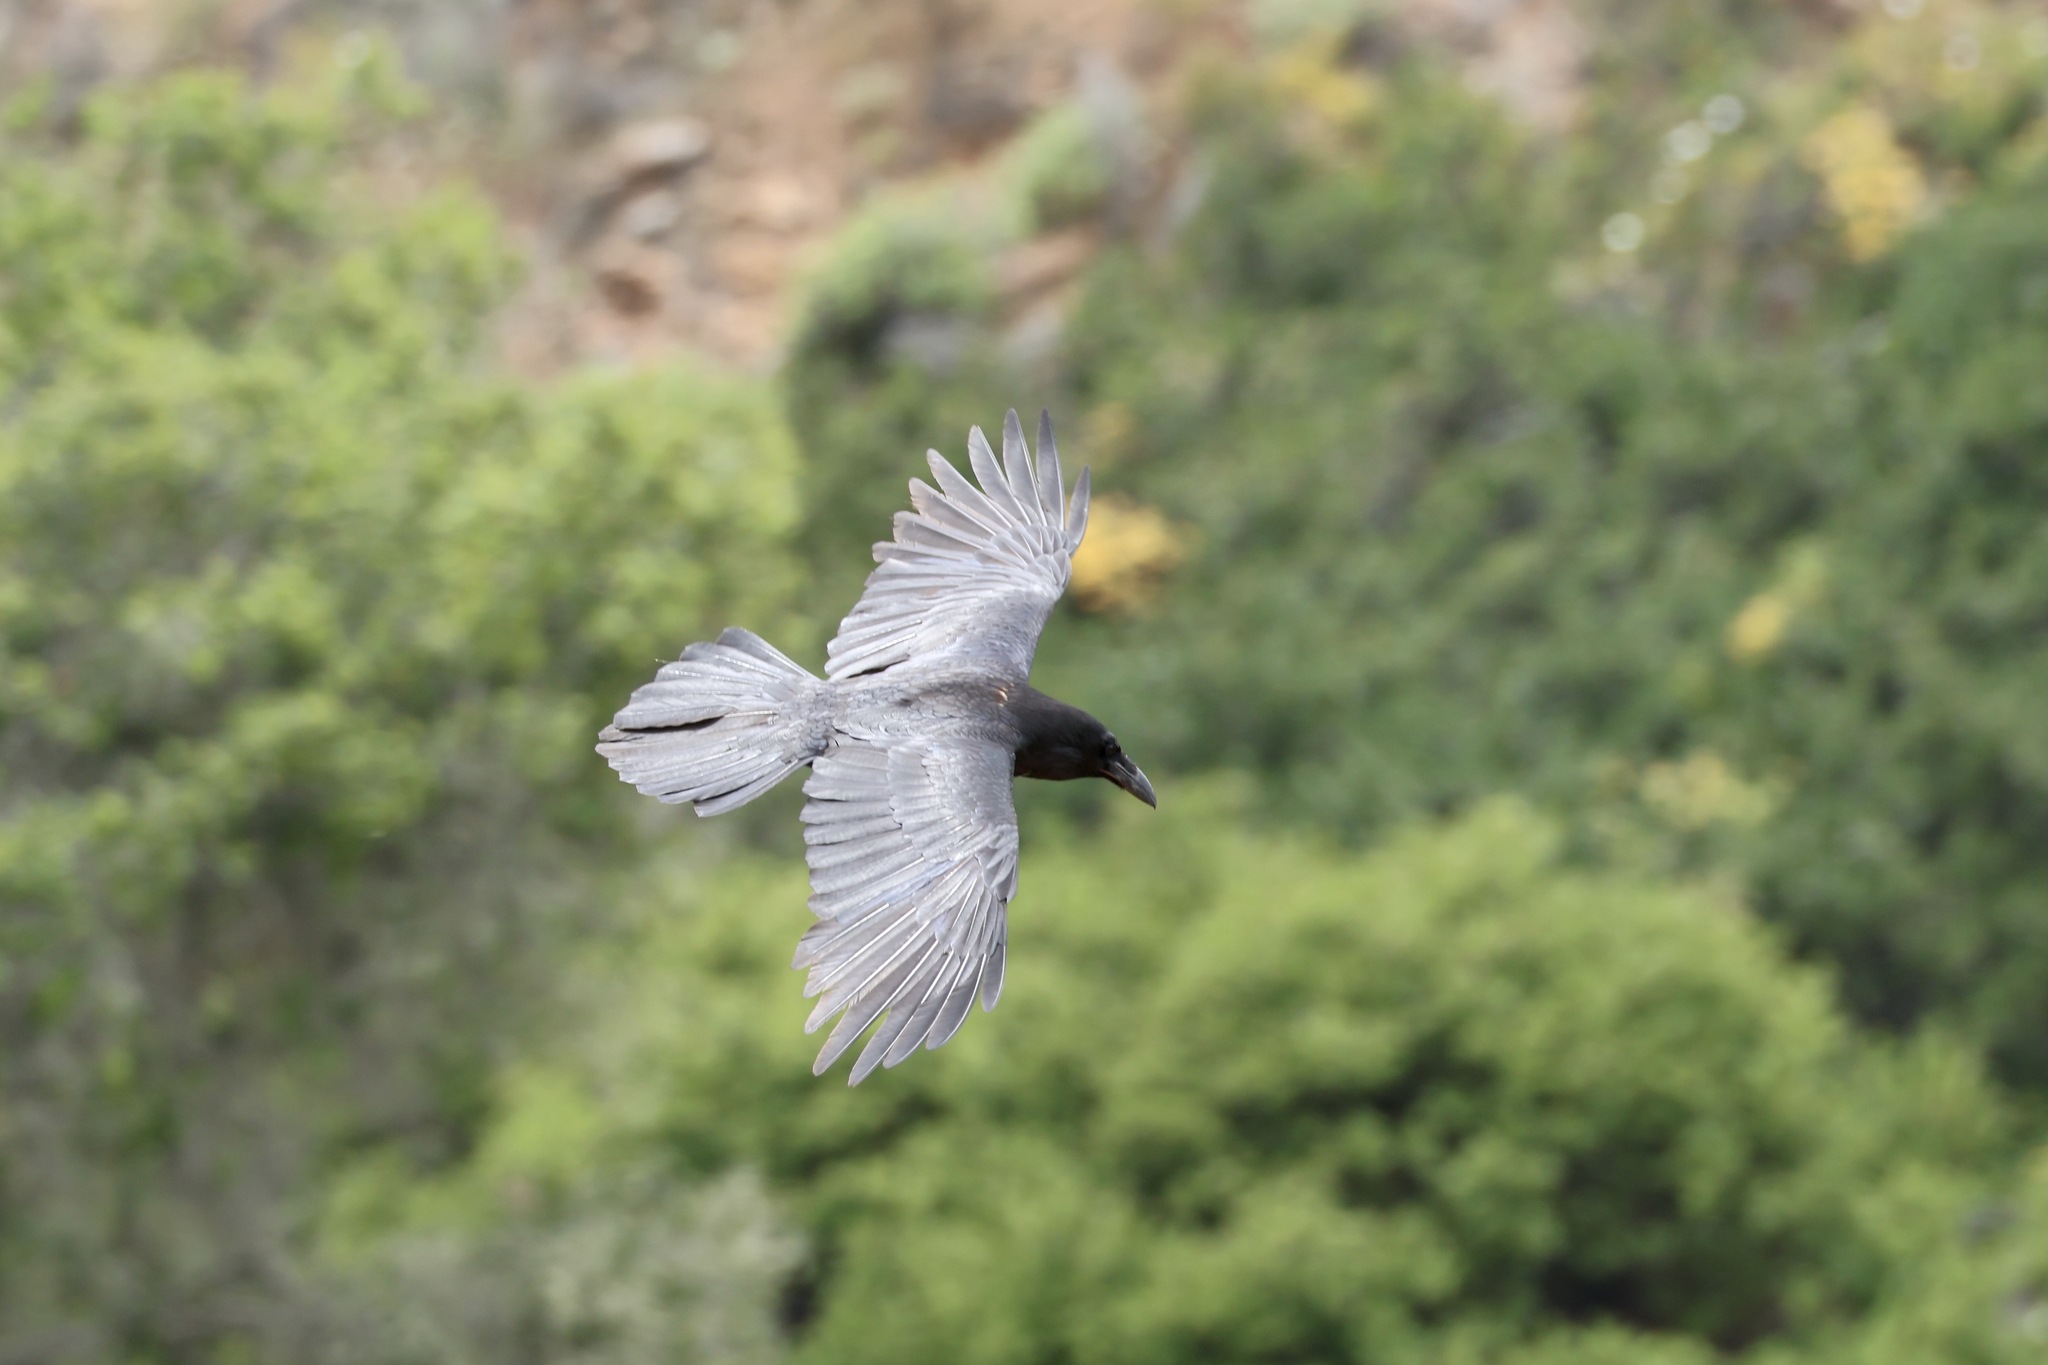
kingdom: Animalia
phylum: Chordata
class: Aves
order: Passeriformes
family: Corvidae
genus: Corvus
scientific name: Corvus corax
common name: Common raven
